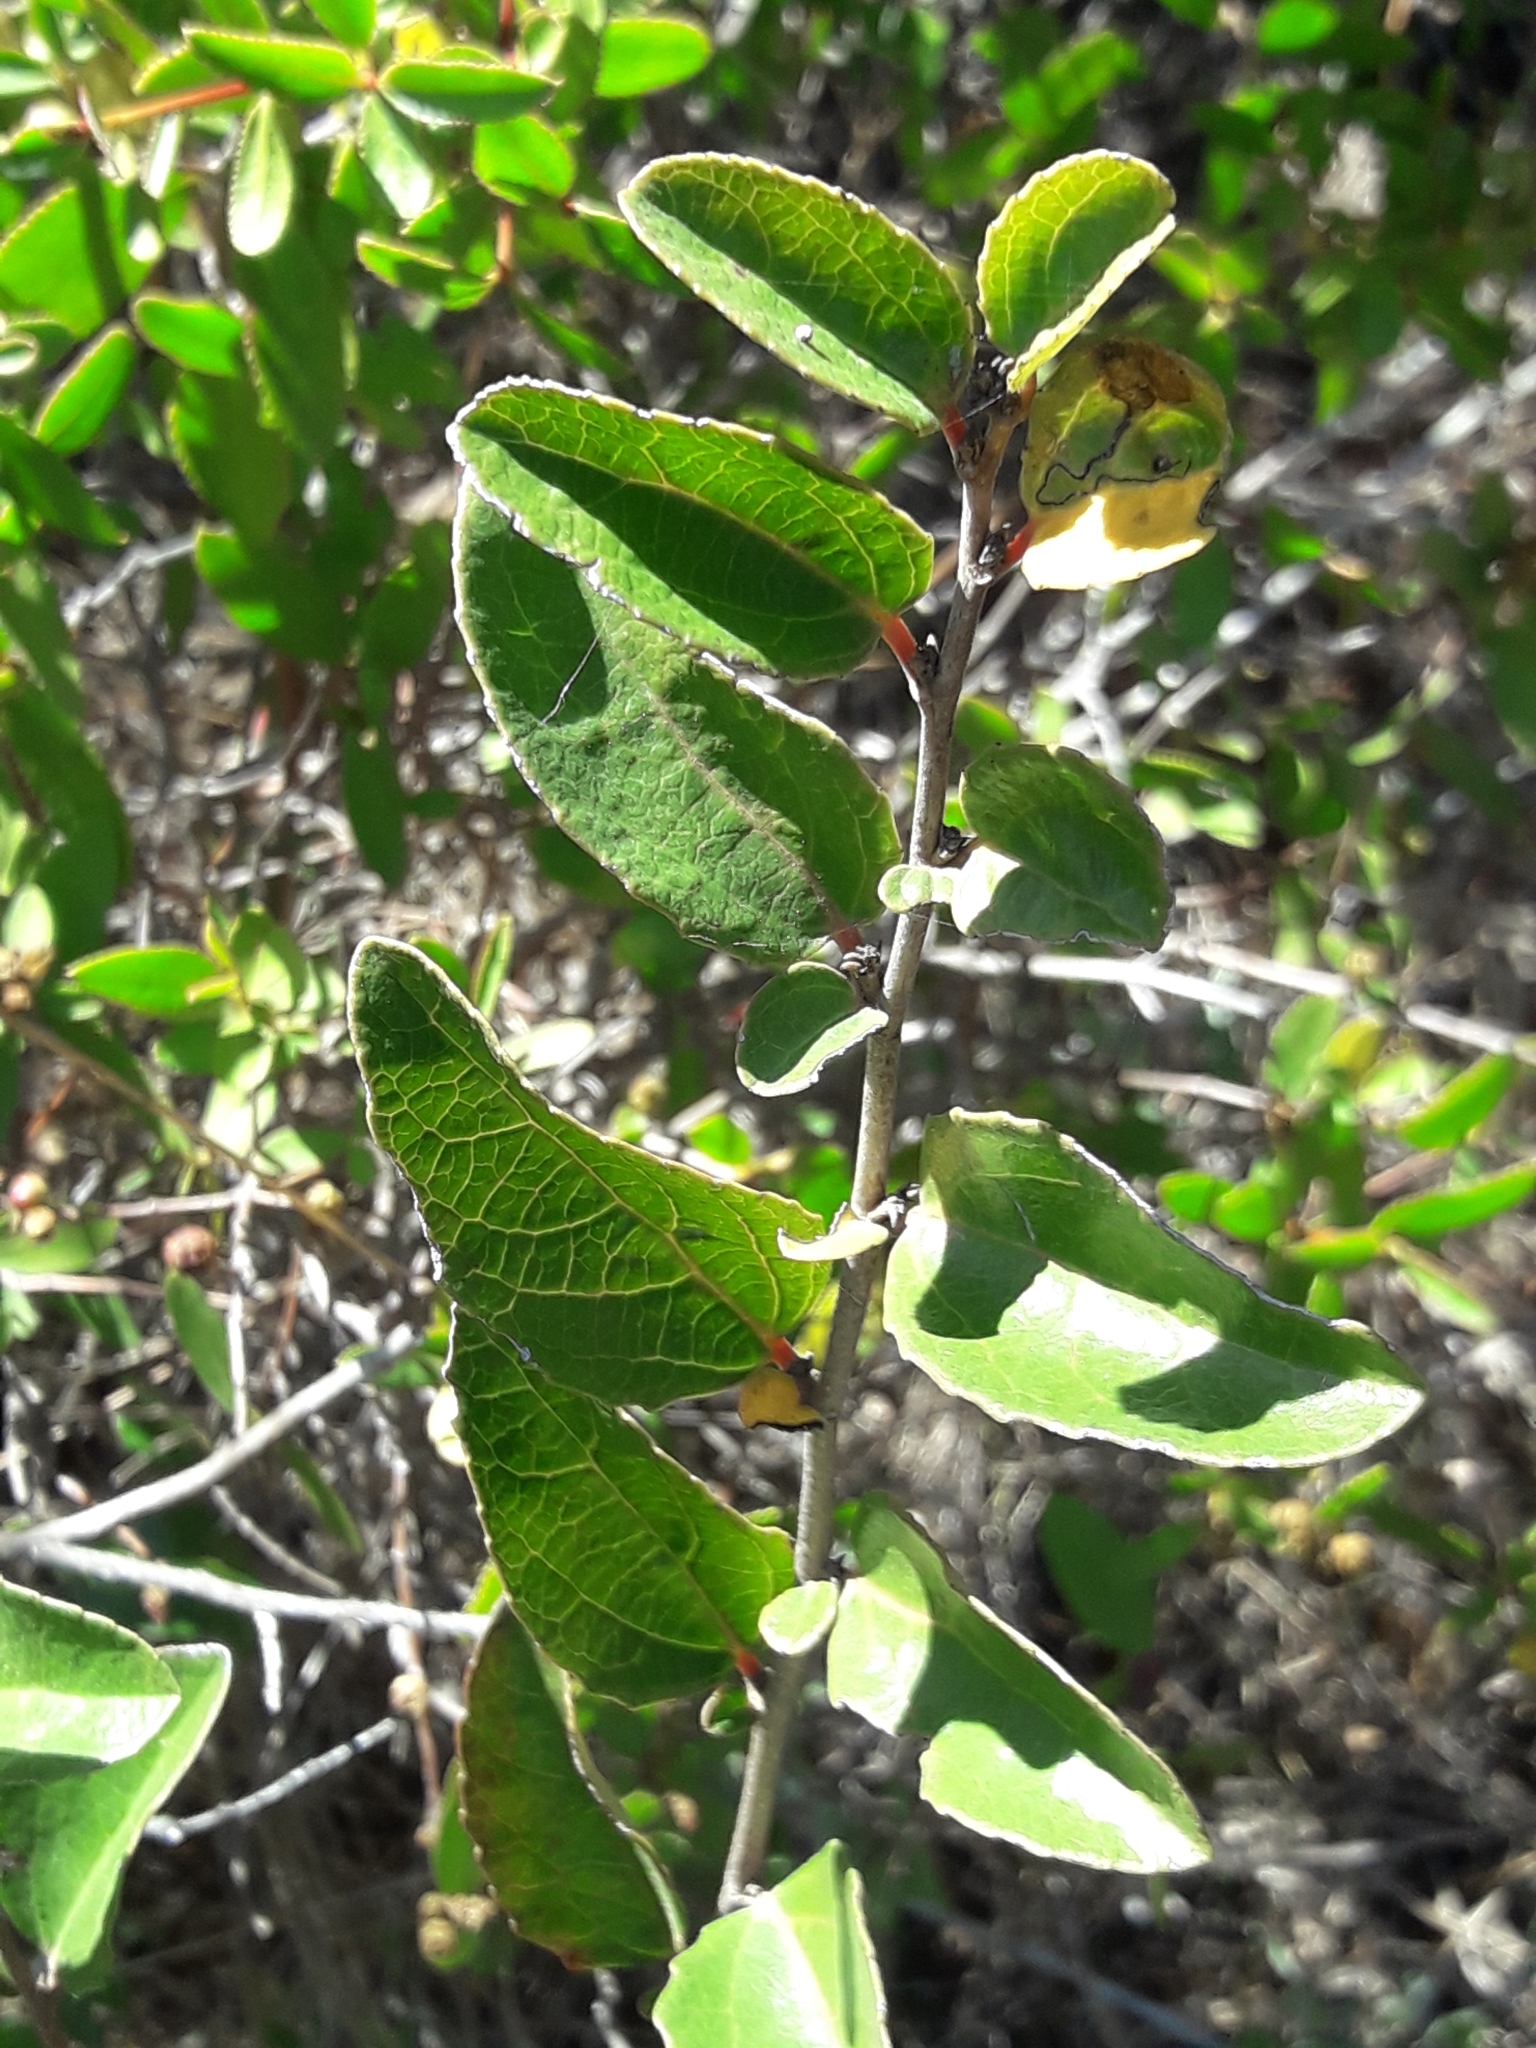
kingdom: Plantae
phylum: Tracheophyta
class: Magnoliopsida
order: Malpighiales
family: Salicaceae
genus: Azara
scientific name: Azara celastrina
